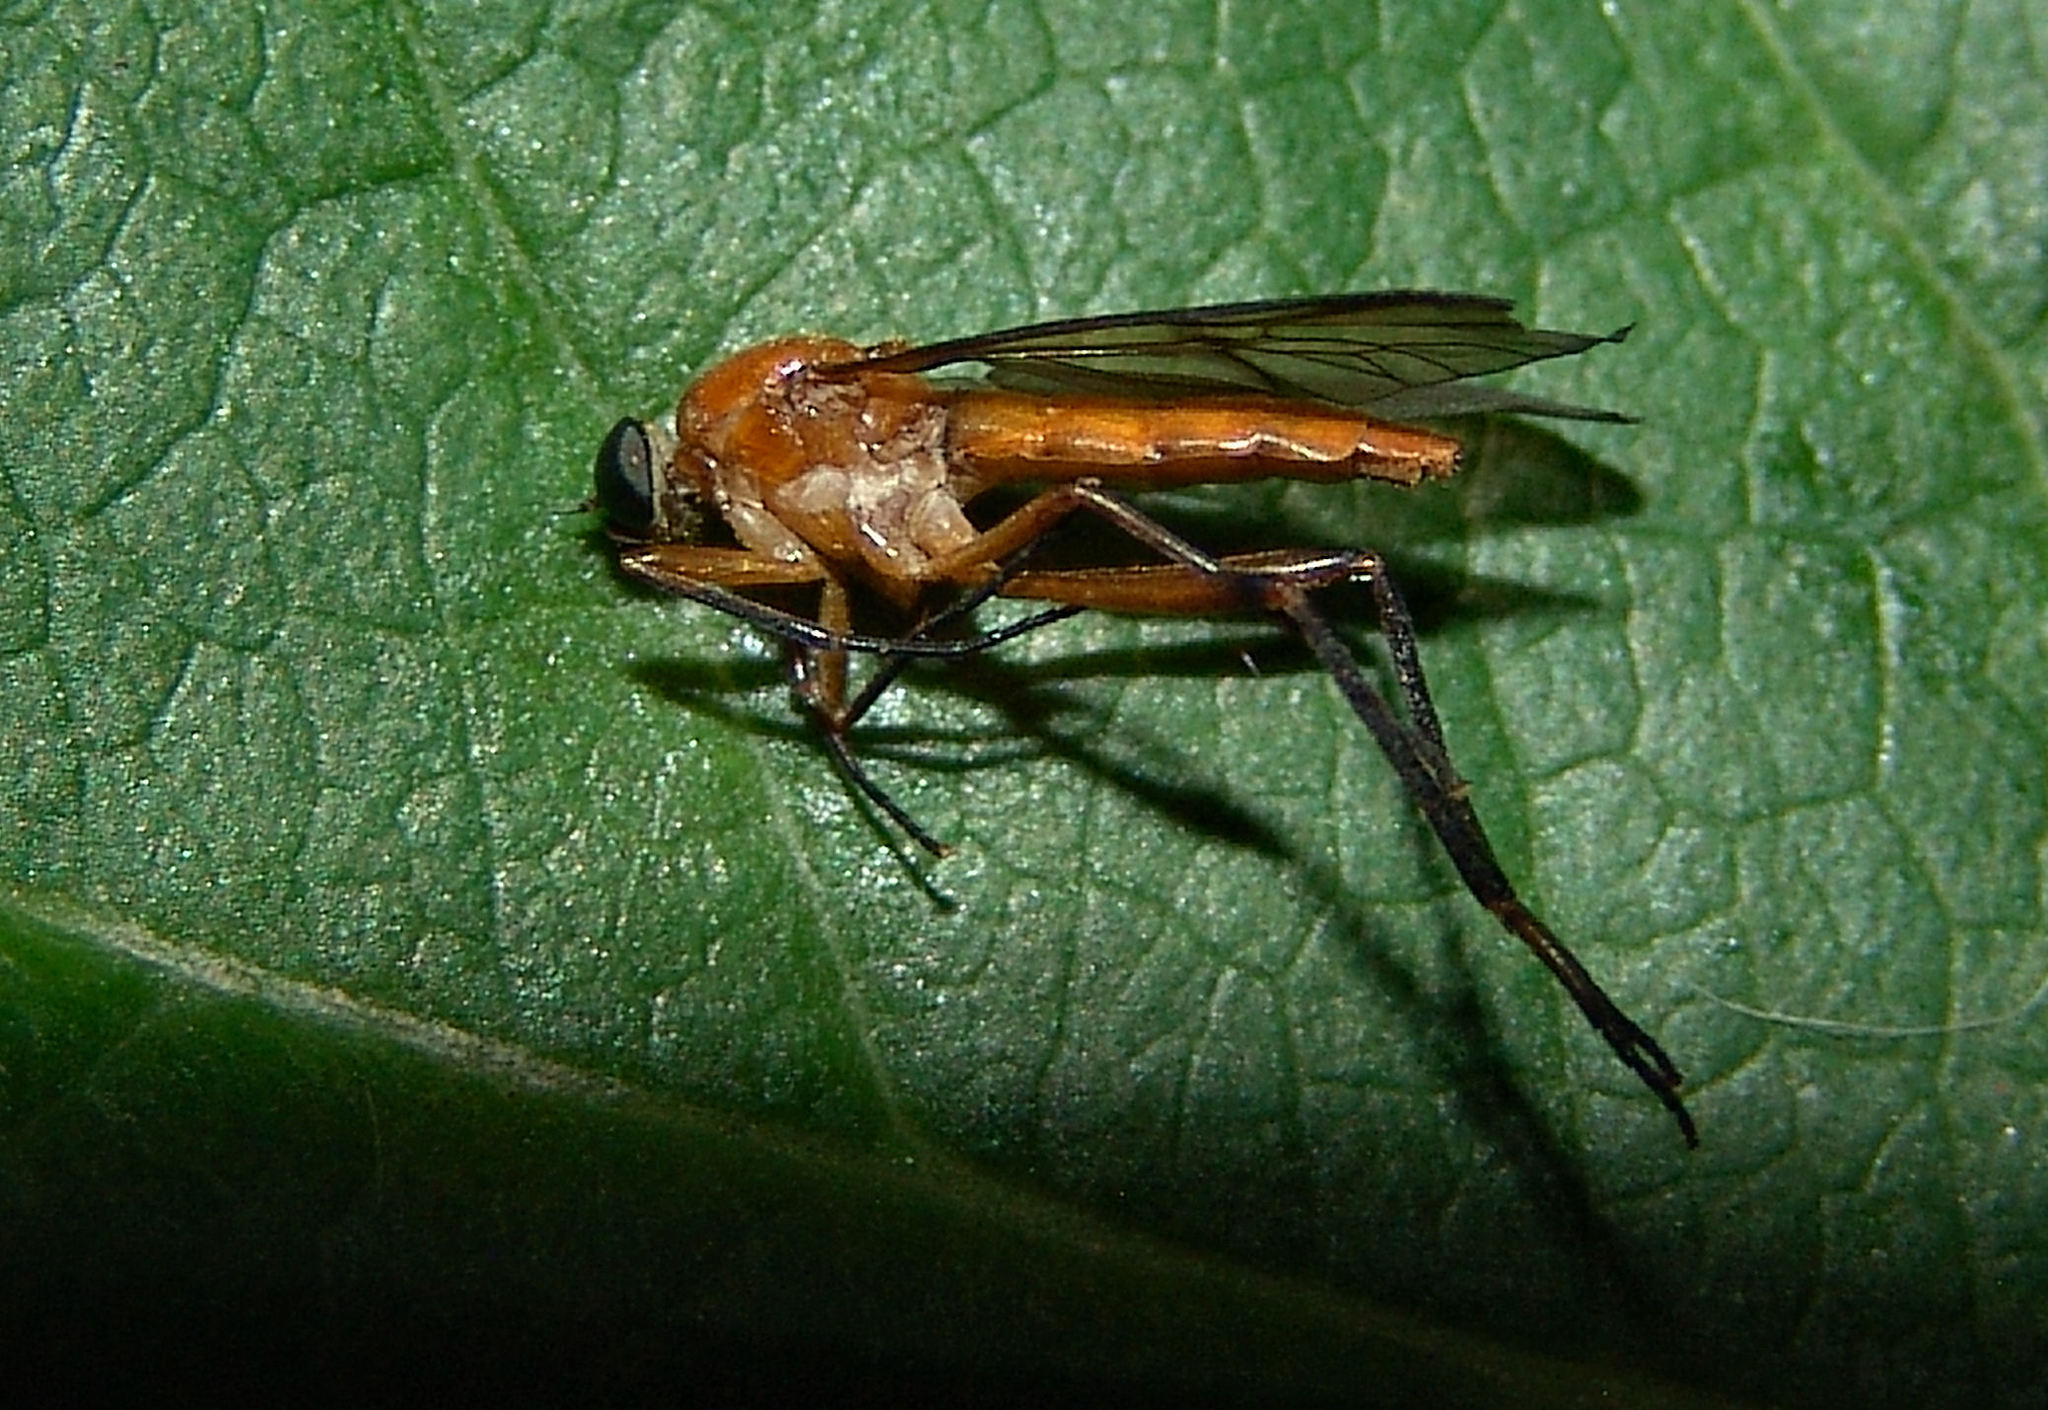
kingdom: Animalia
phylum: Arthropoda
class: Insecta
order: Diptera
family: Xylophagidae
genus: Dialysis
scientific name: Dialysis rufithorax
